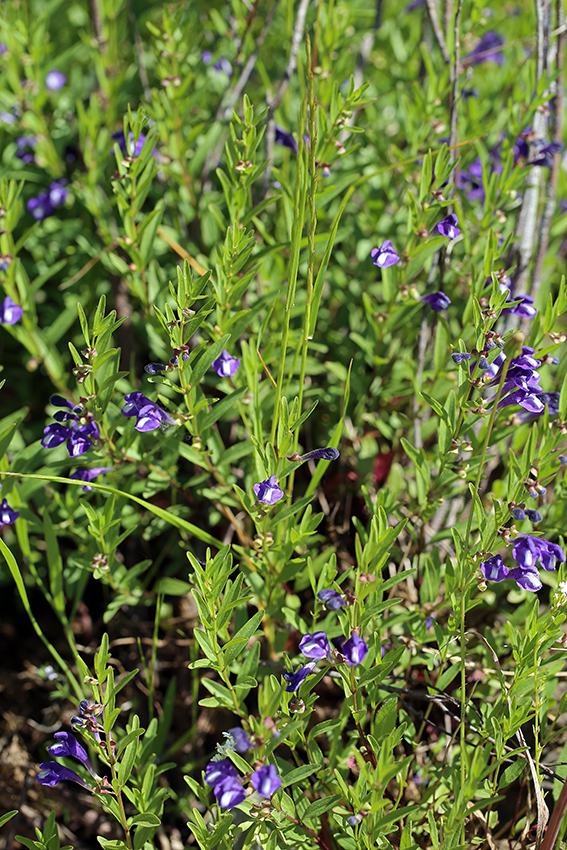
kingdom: Plantae
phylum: Tracheophyta
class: Magnoliopsida
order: Lamiales
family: Lamiaceae
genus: Scutellaria
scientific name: Scutellaria siphocampyloides
